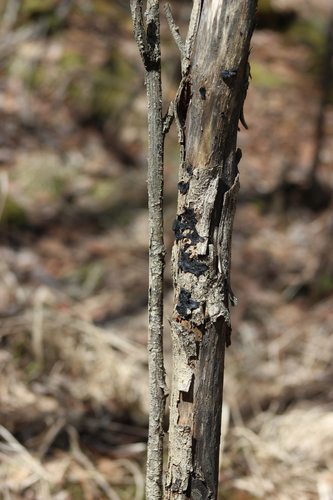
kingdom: Fungi
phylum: Basidiomycota
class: Agaricomycetes
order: Auriculariales
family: Auriculariaceae
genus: Exidia
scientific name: Exidia glandulosa
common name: Witches' butter
